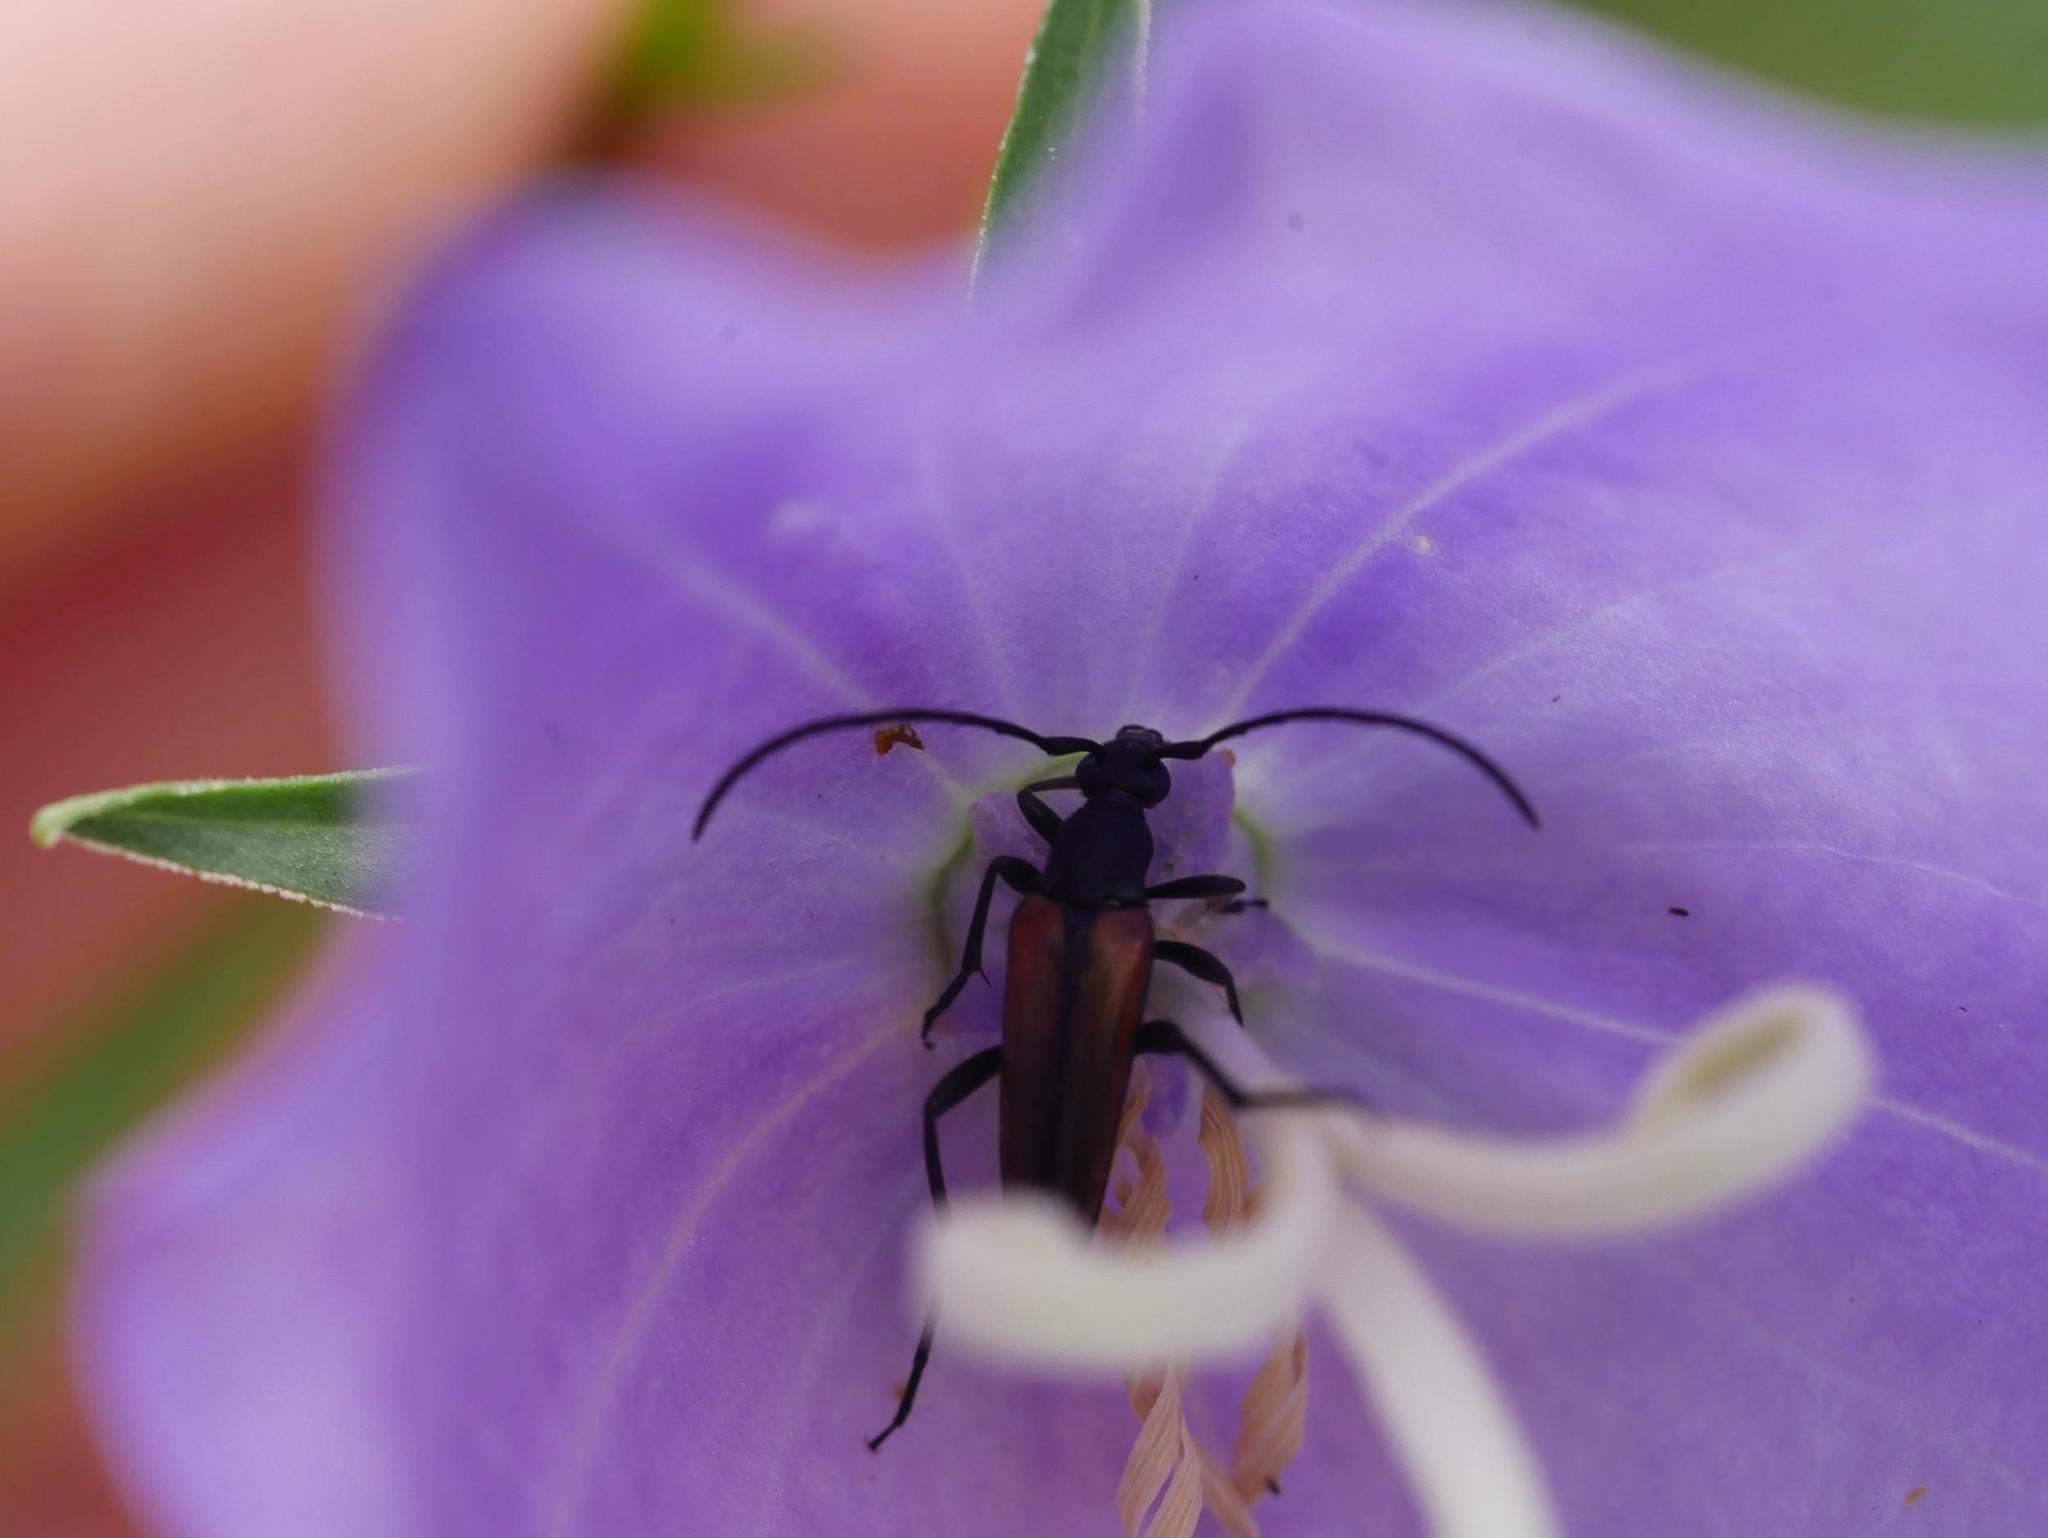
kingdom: Animalia
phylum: Arthropoda
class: Insecta
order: Coleoptera
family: Cerambycidae
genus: Stenurella
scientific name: Stenurella melanura
